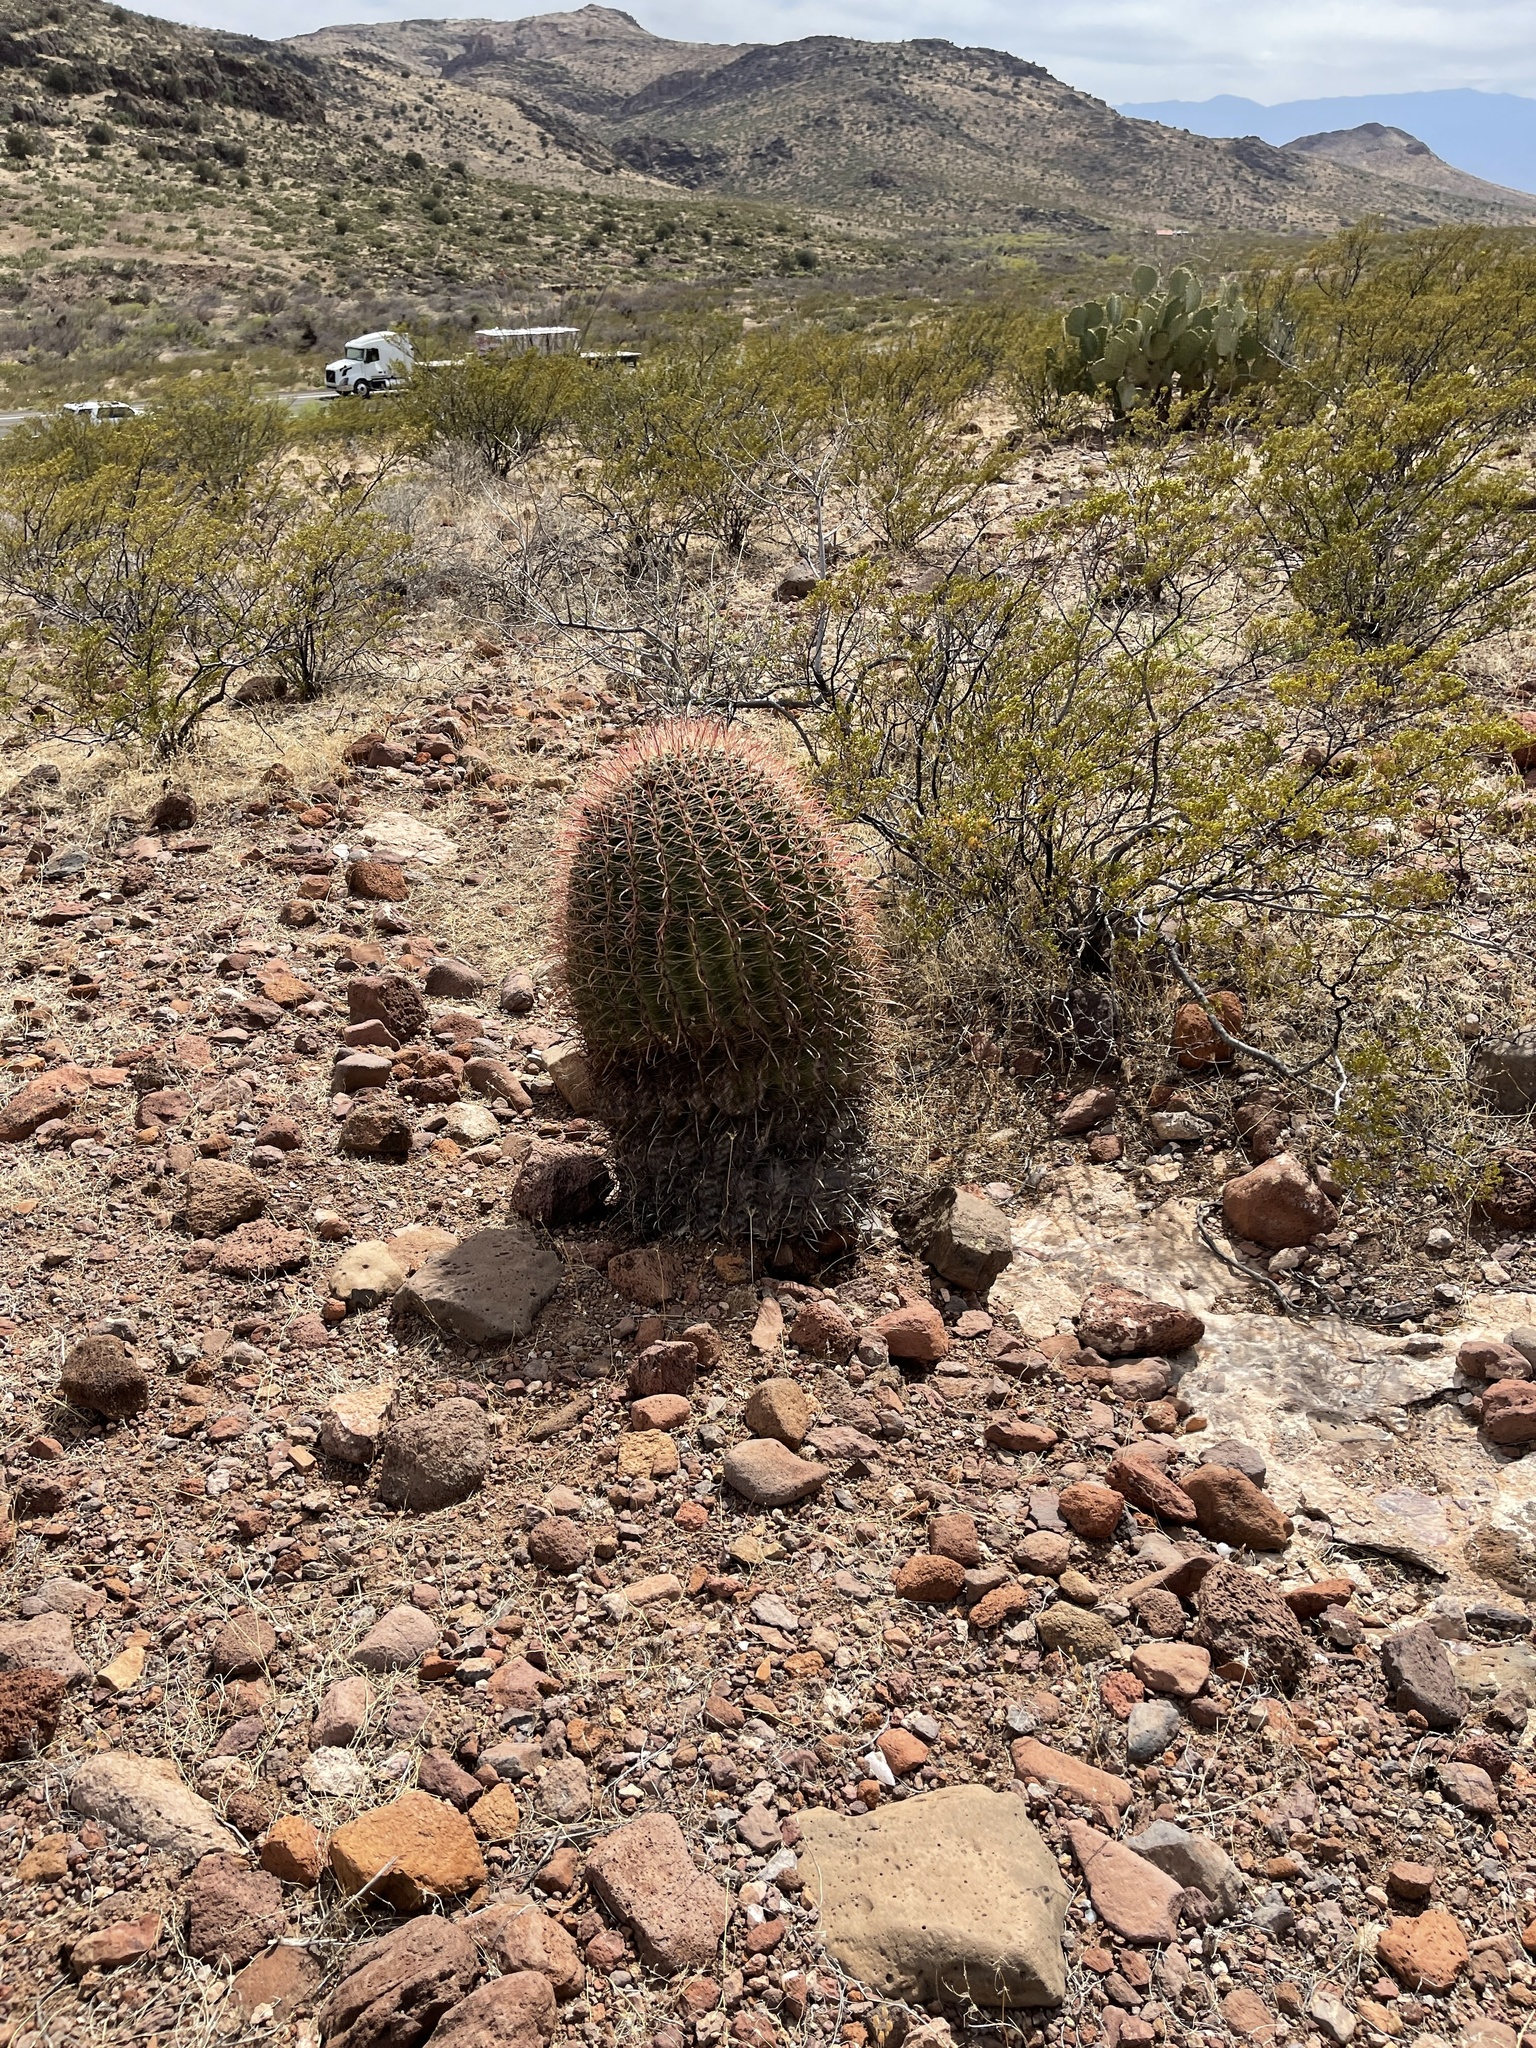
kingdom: Plantae
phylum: Tracheophyta
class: Magnoliopsida
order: Caryophyllales
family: Cactaceae
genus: Ferocactus
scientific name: Ferocactus wislizeni
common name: Candy barrel cactus
